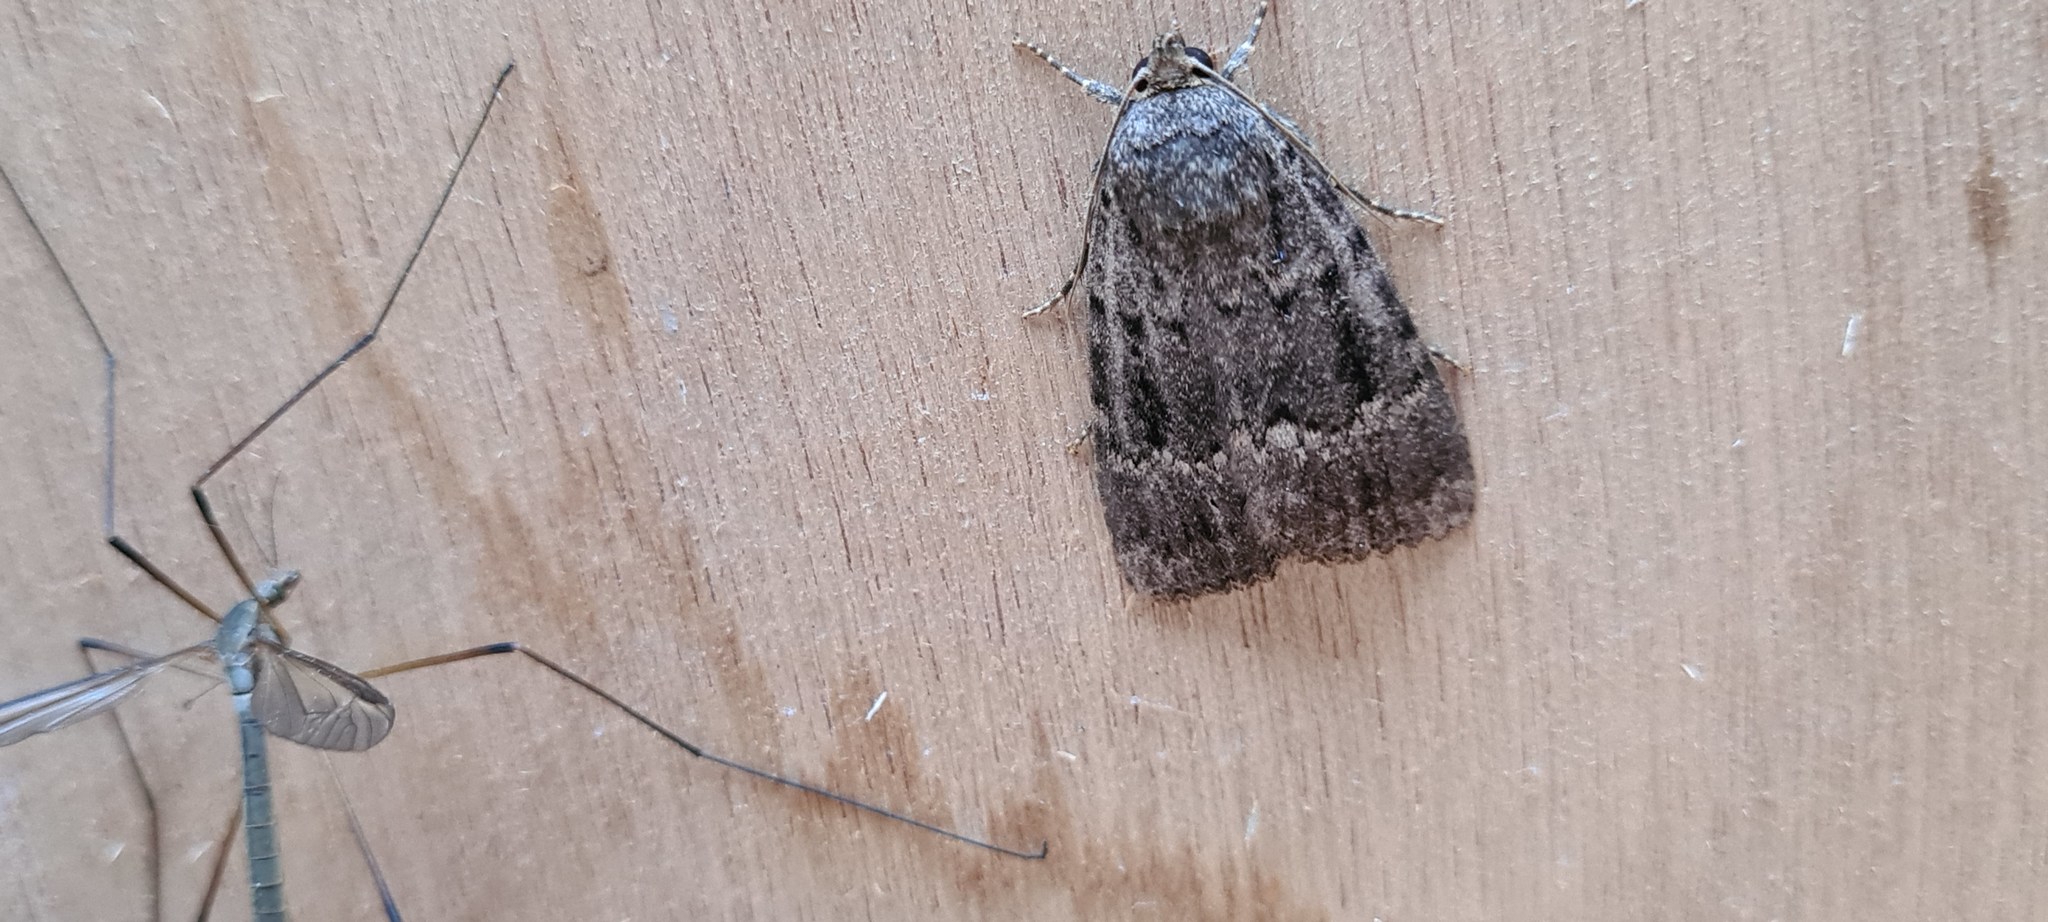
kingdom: Animalia
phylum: Arthropoda
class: Insecta
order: Lepidoptera
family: Noctuidae
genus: Amphipyra
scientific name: Amphipyra pyramidea
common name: Copper underwing
